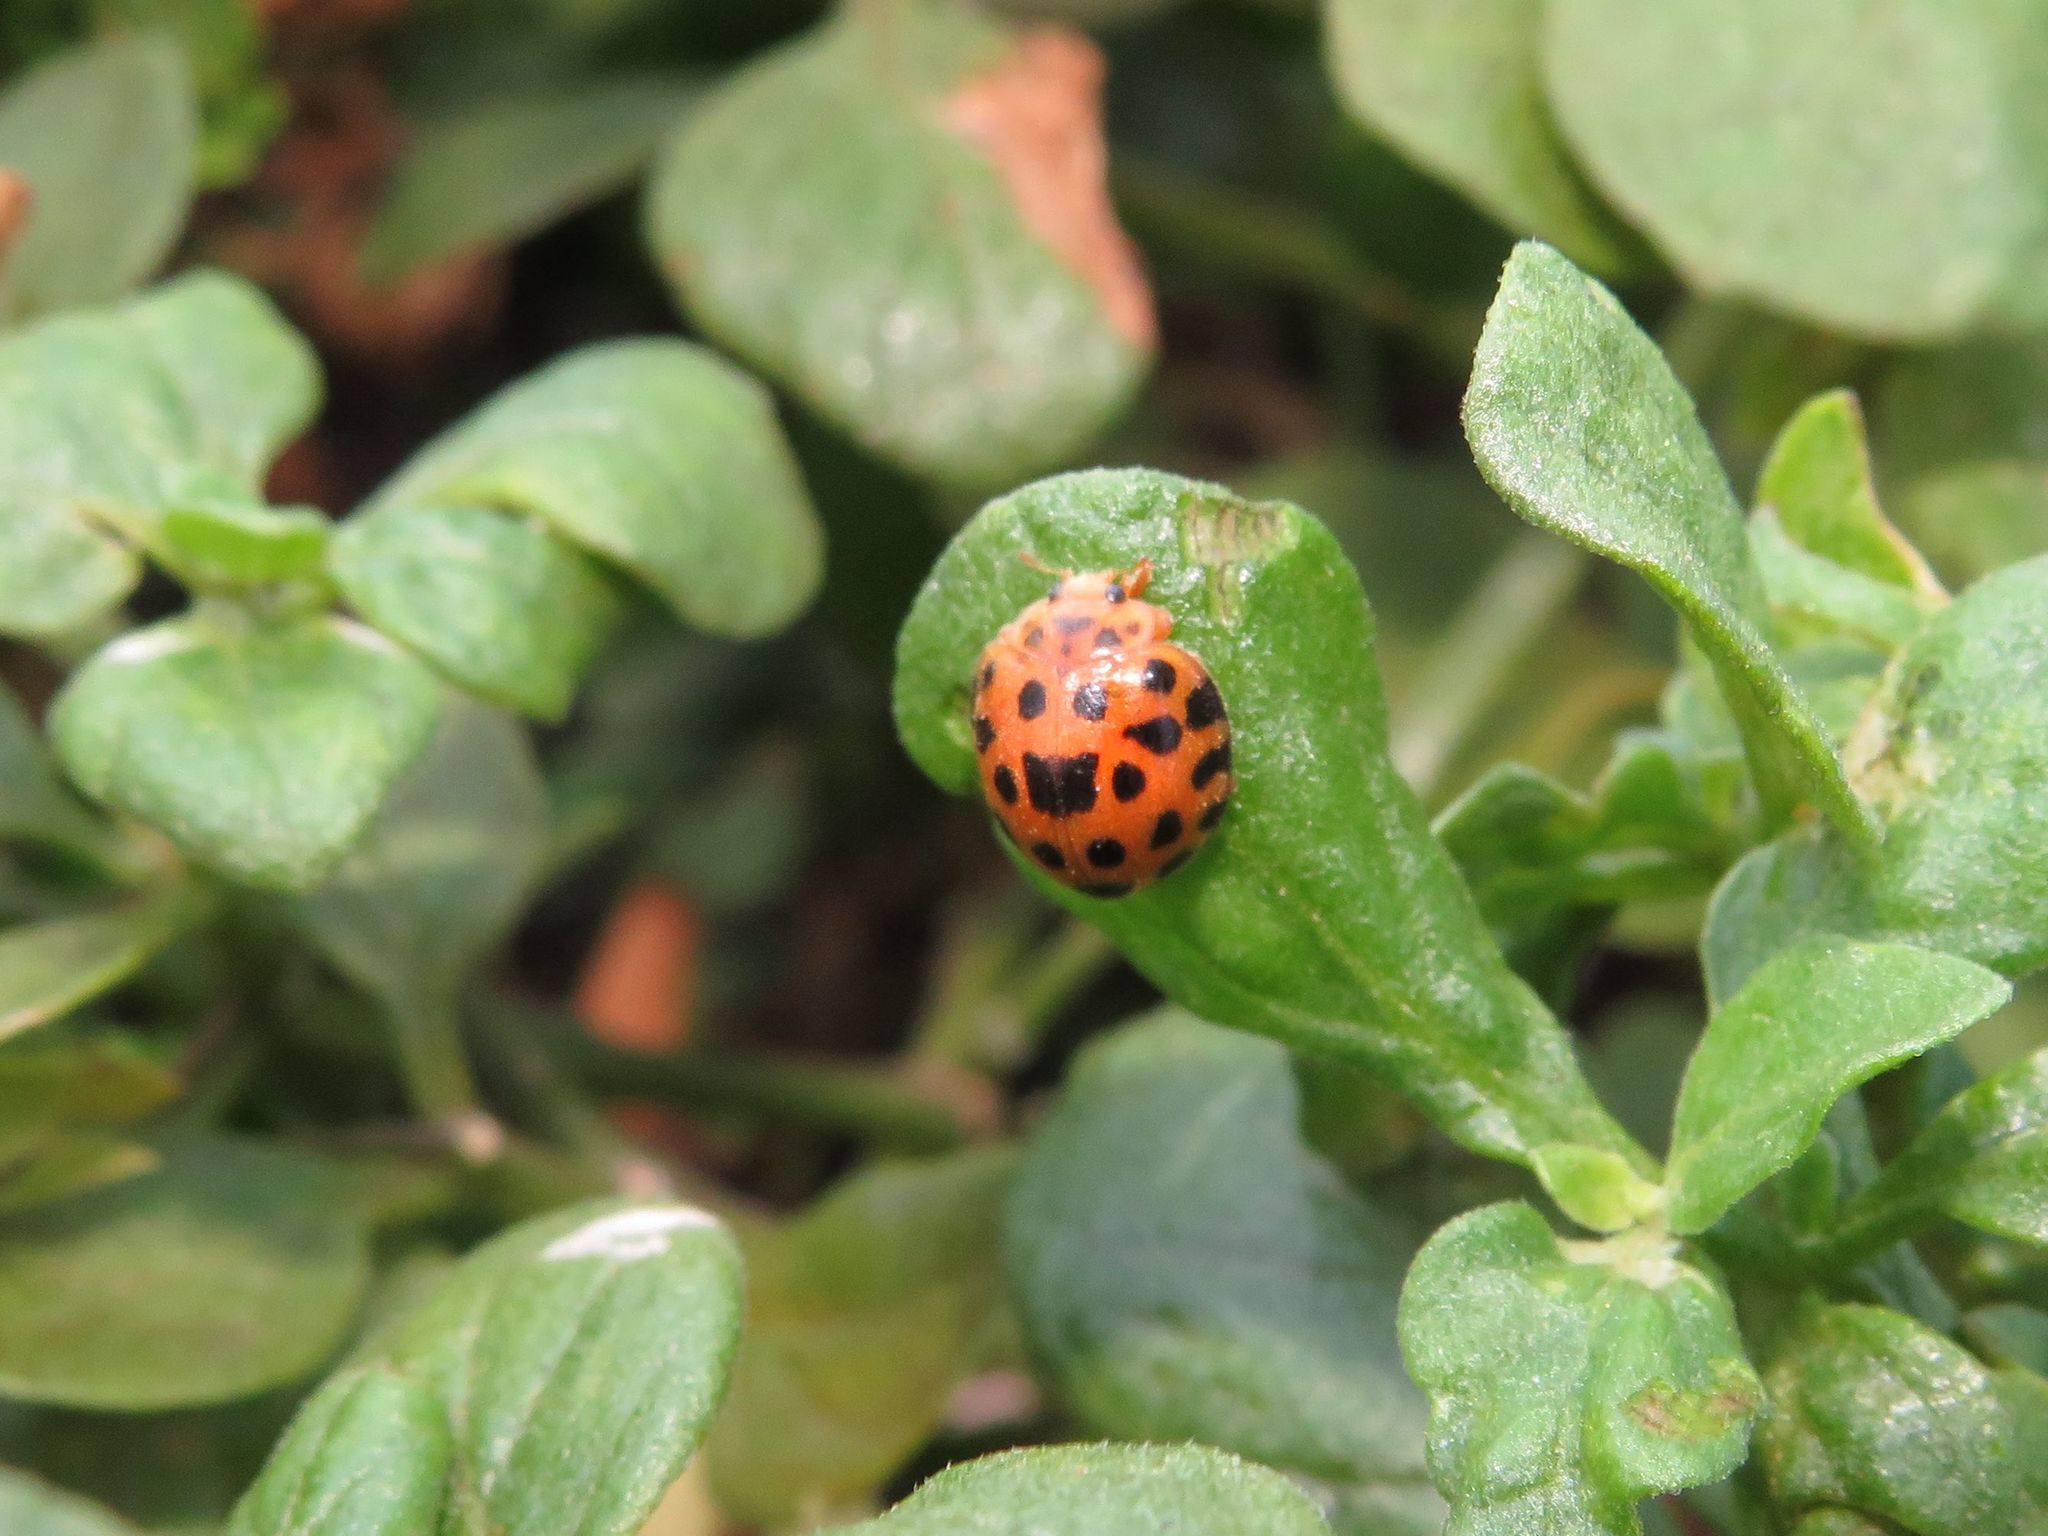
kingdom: Animalia
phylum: Arthropoda
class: Insecta
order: Coleoptera
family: Coccinellidae
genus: Henosepilachna
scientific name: Henosepilachna vigintioctopunctata
